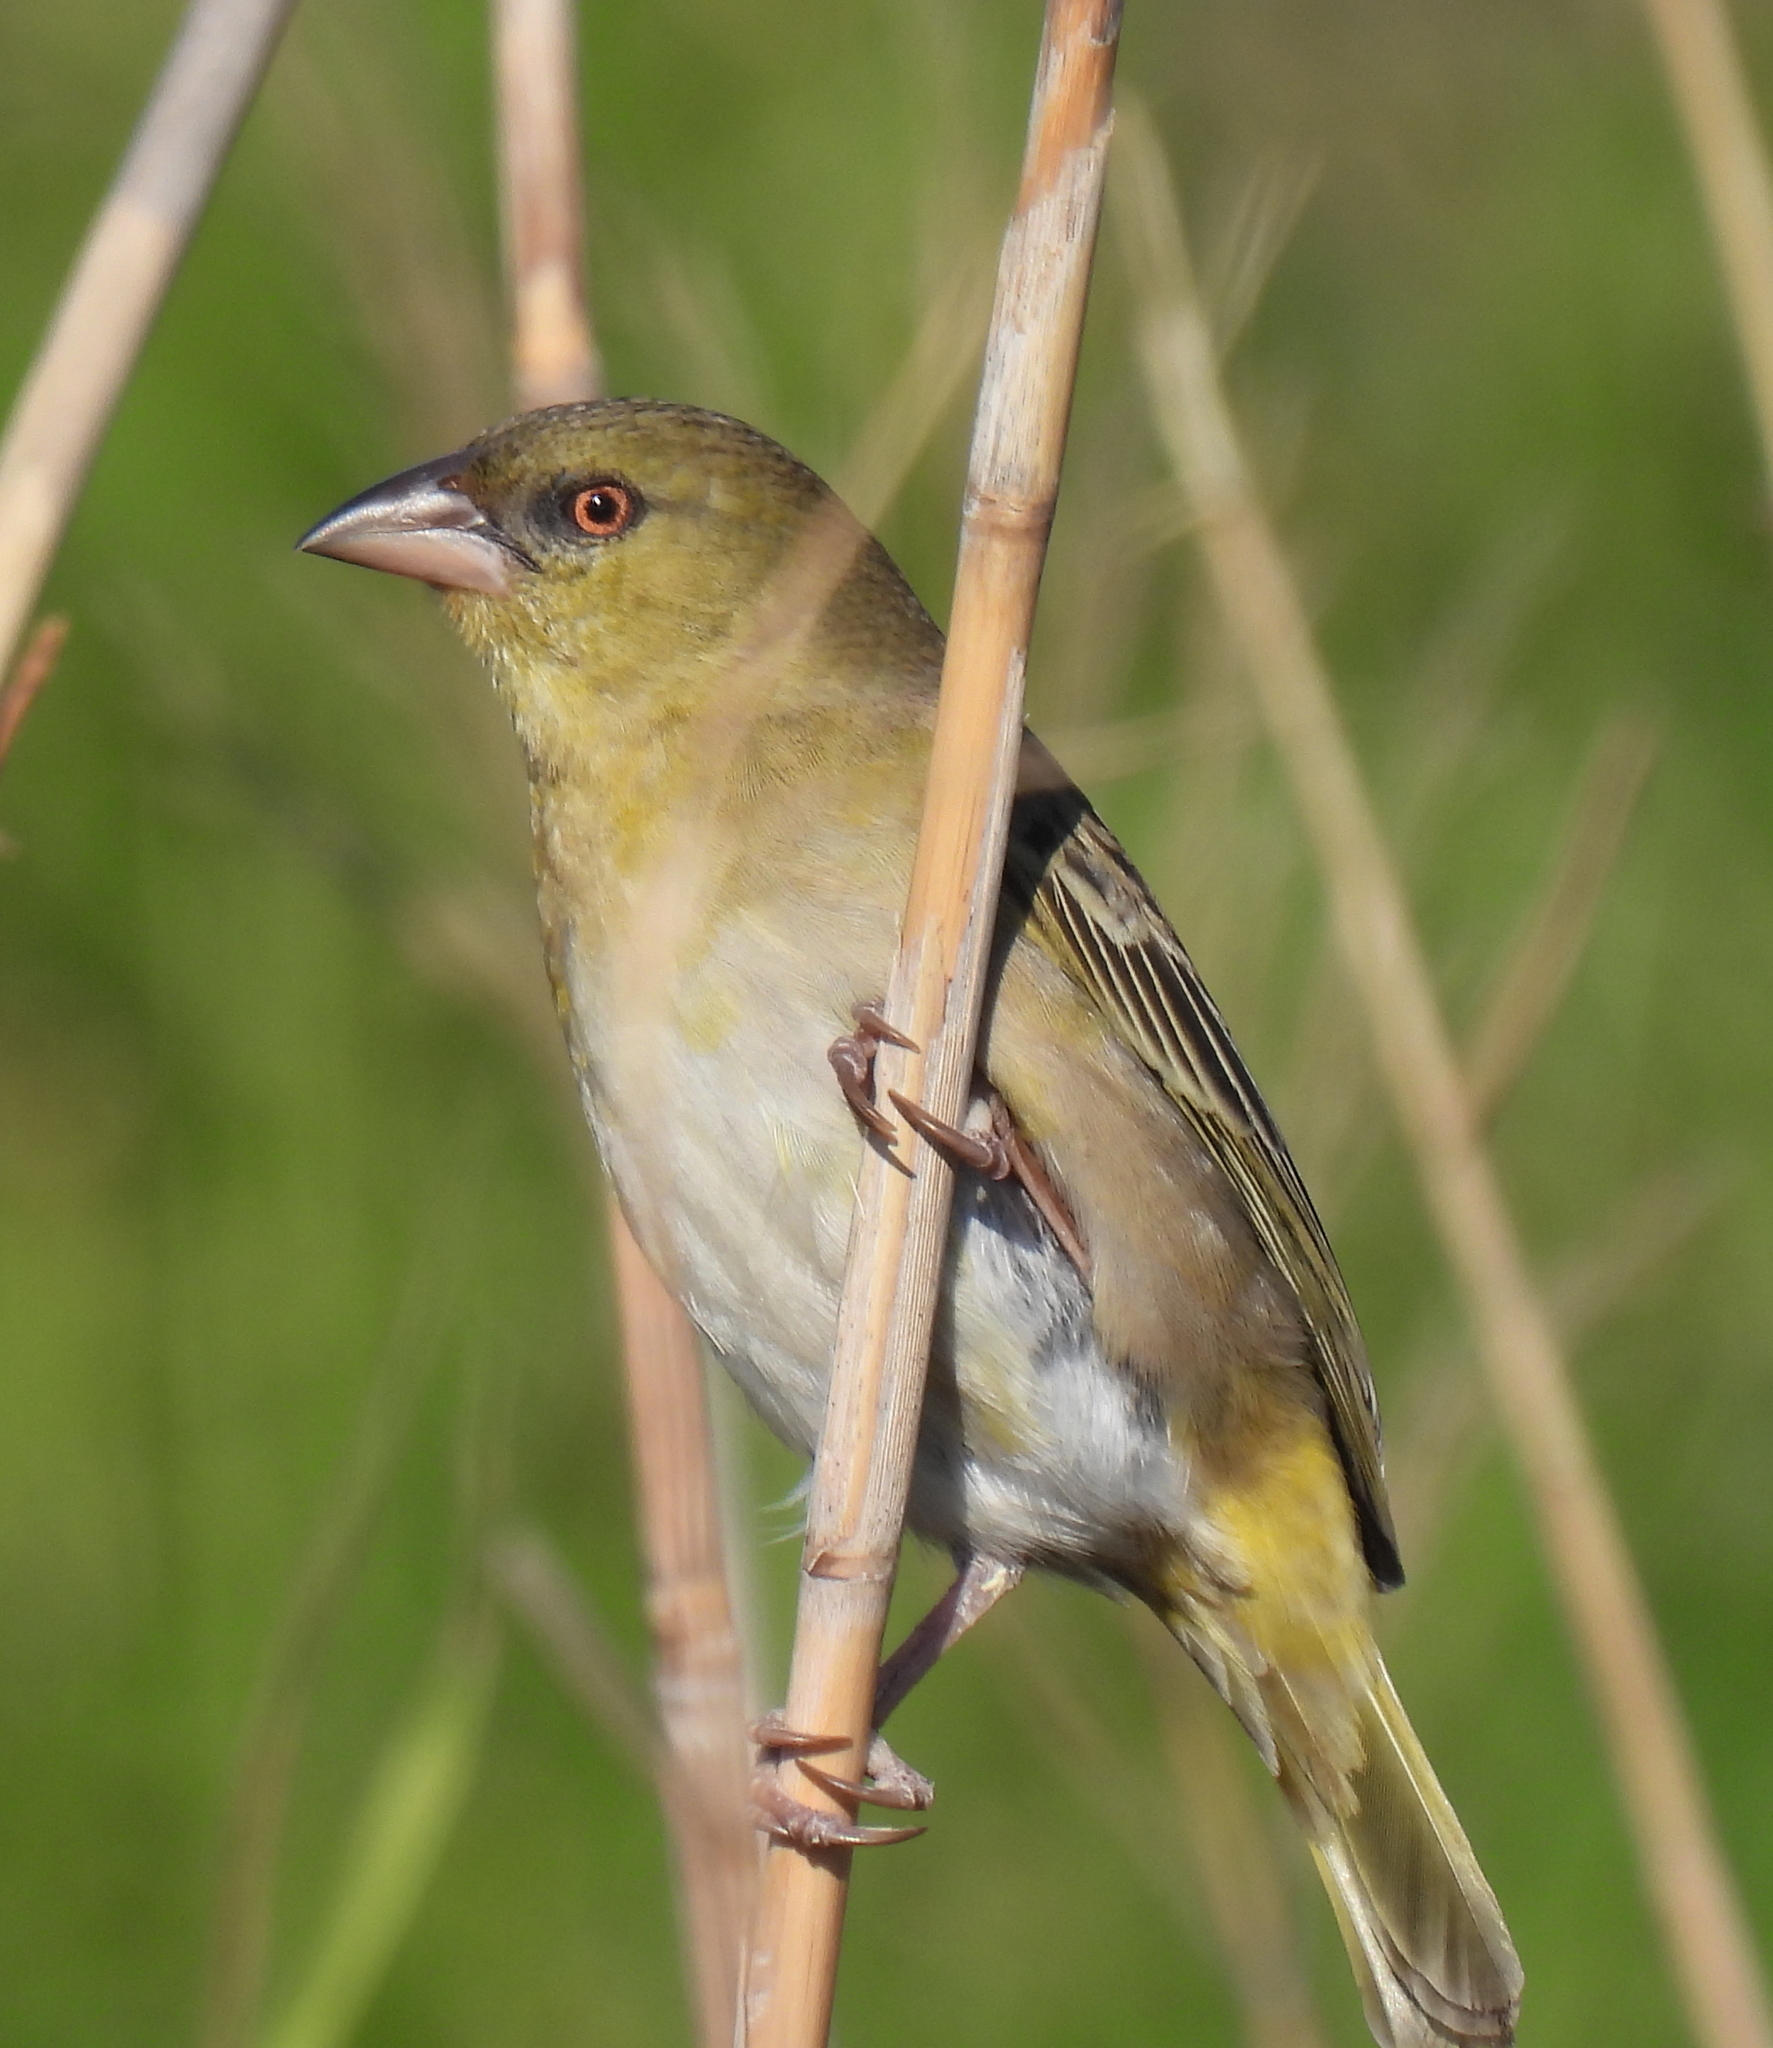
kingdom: Animalia
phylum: Chordata
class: Aves
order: Passeriformes
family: Ploceidae
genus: Ploceus
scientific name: Ploceus velatus
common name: Southern masked weaver
